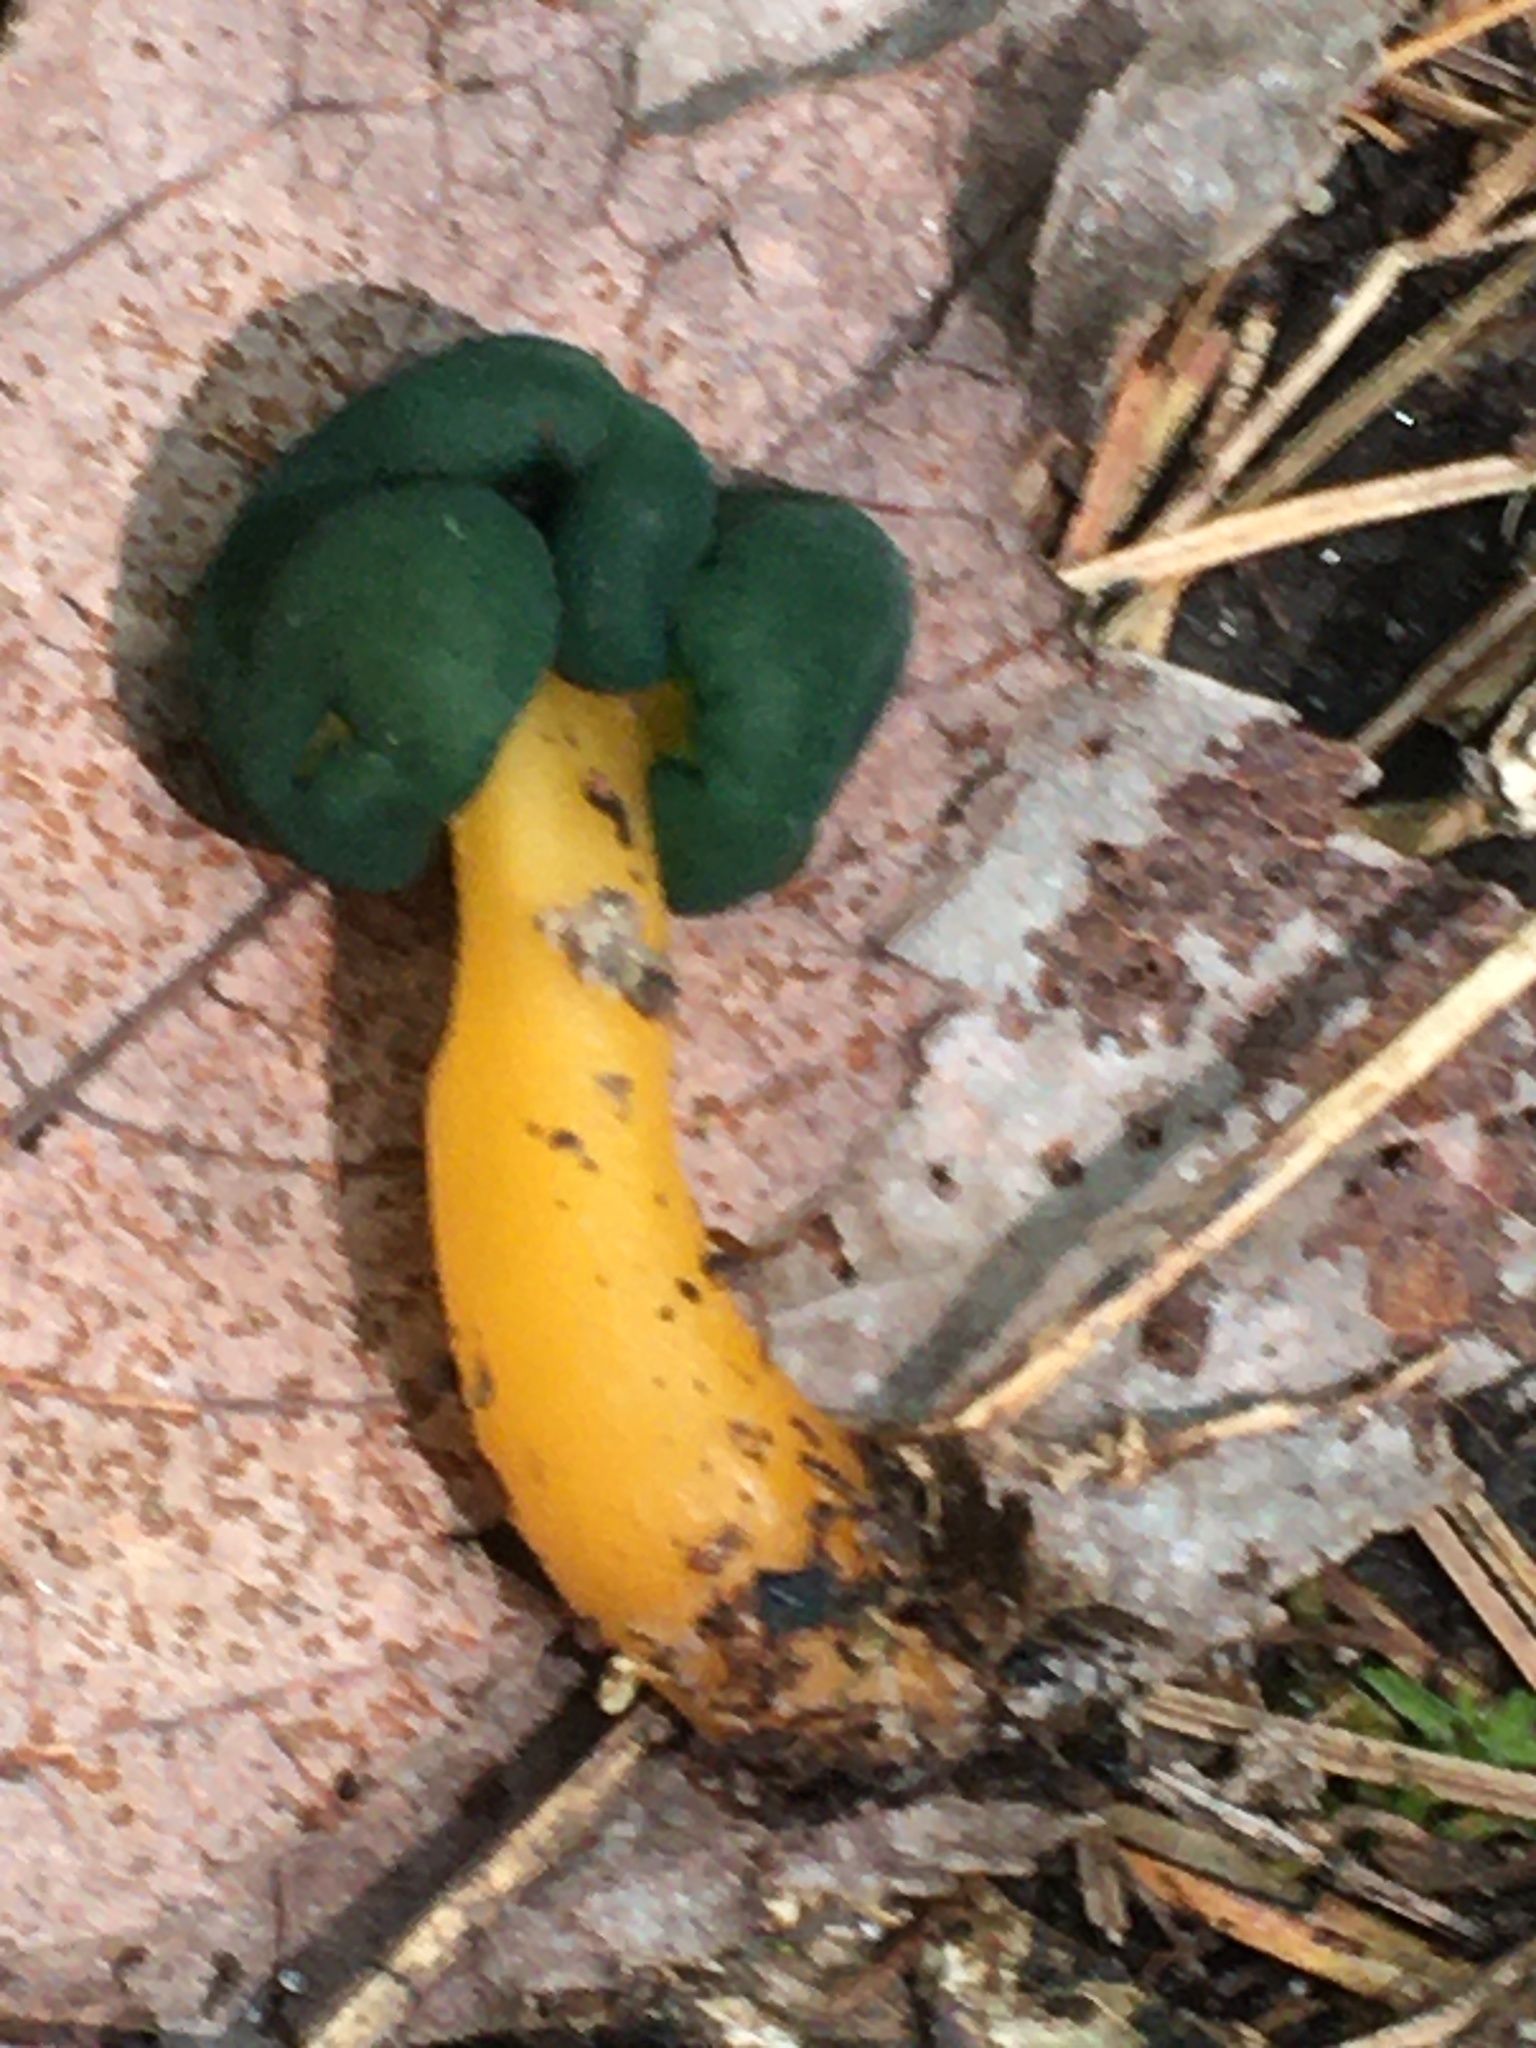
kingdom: Fungi
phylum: Ascomycota
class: Leotiomycetes
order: Leotiales
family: Leotiaceae
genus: Leotia
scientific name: Leotia lubrica
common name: Jellybaby
